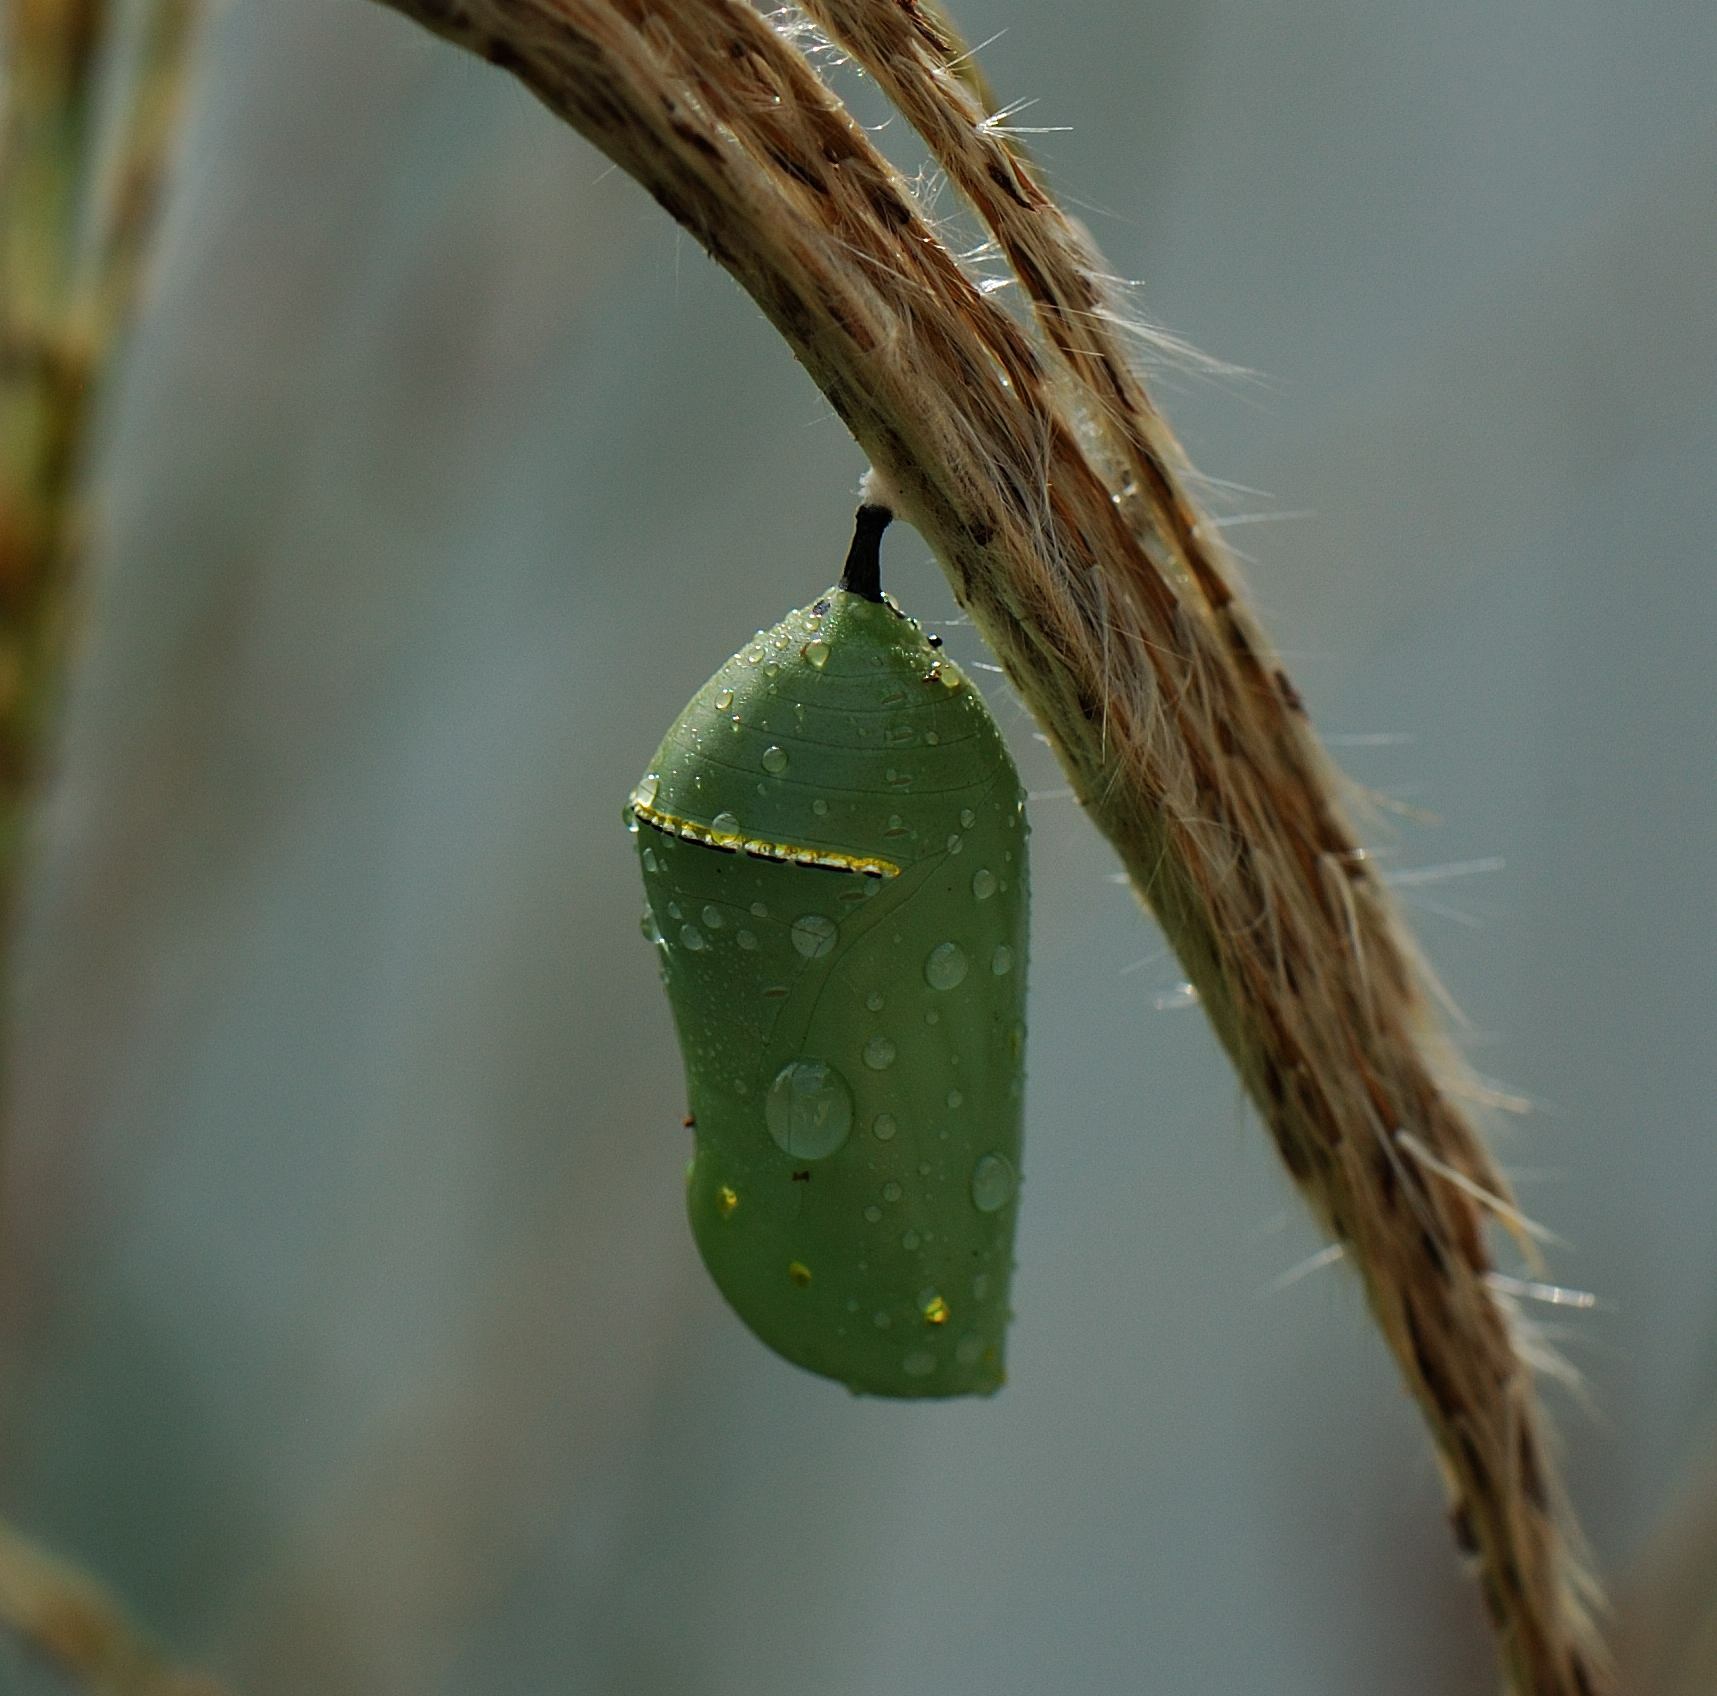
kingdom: Animalia
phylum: Arthropoda
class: Insecta
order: Lepidoptera
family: Nymphalidae
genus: Danaus
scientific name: Danaus plexippus
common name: Monarch
